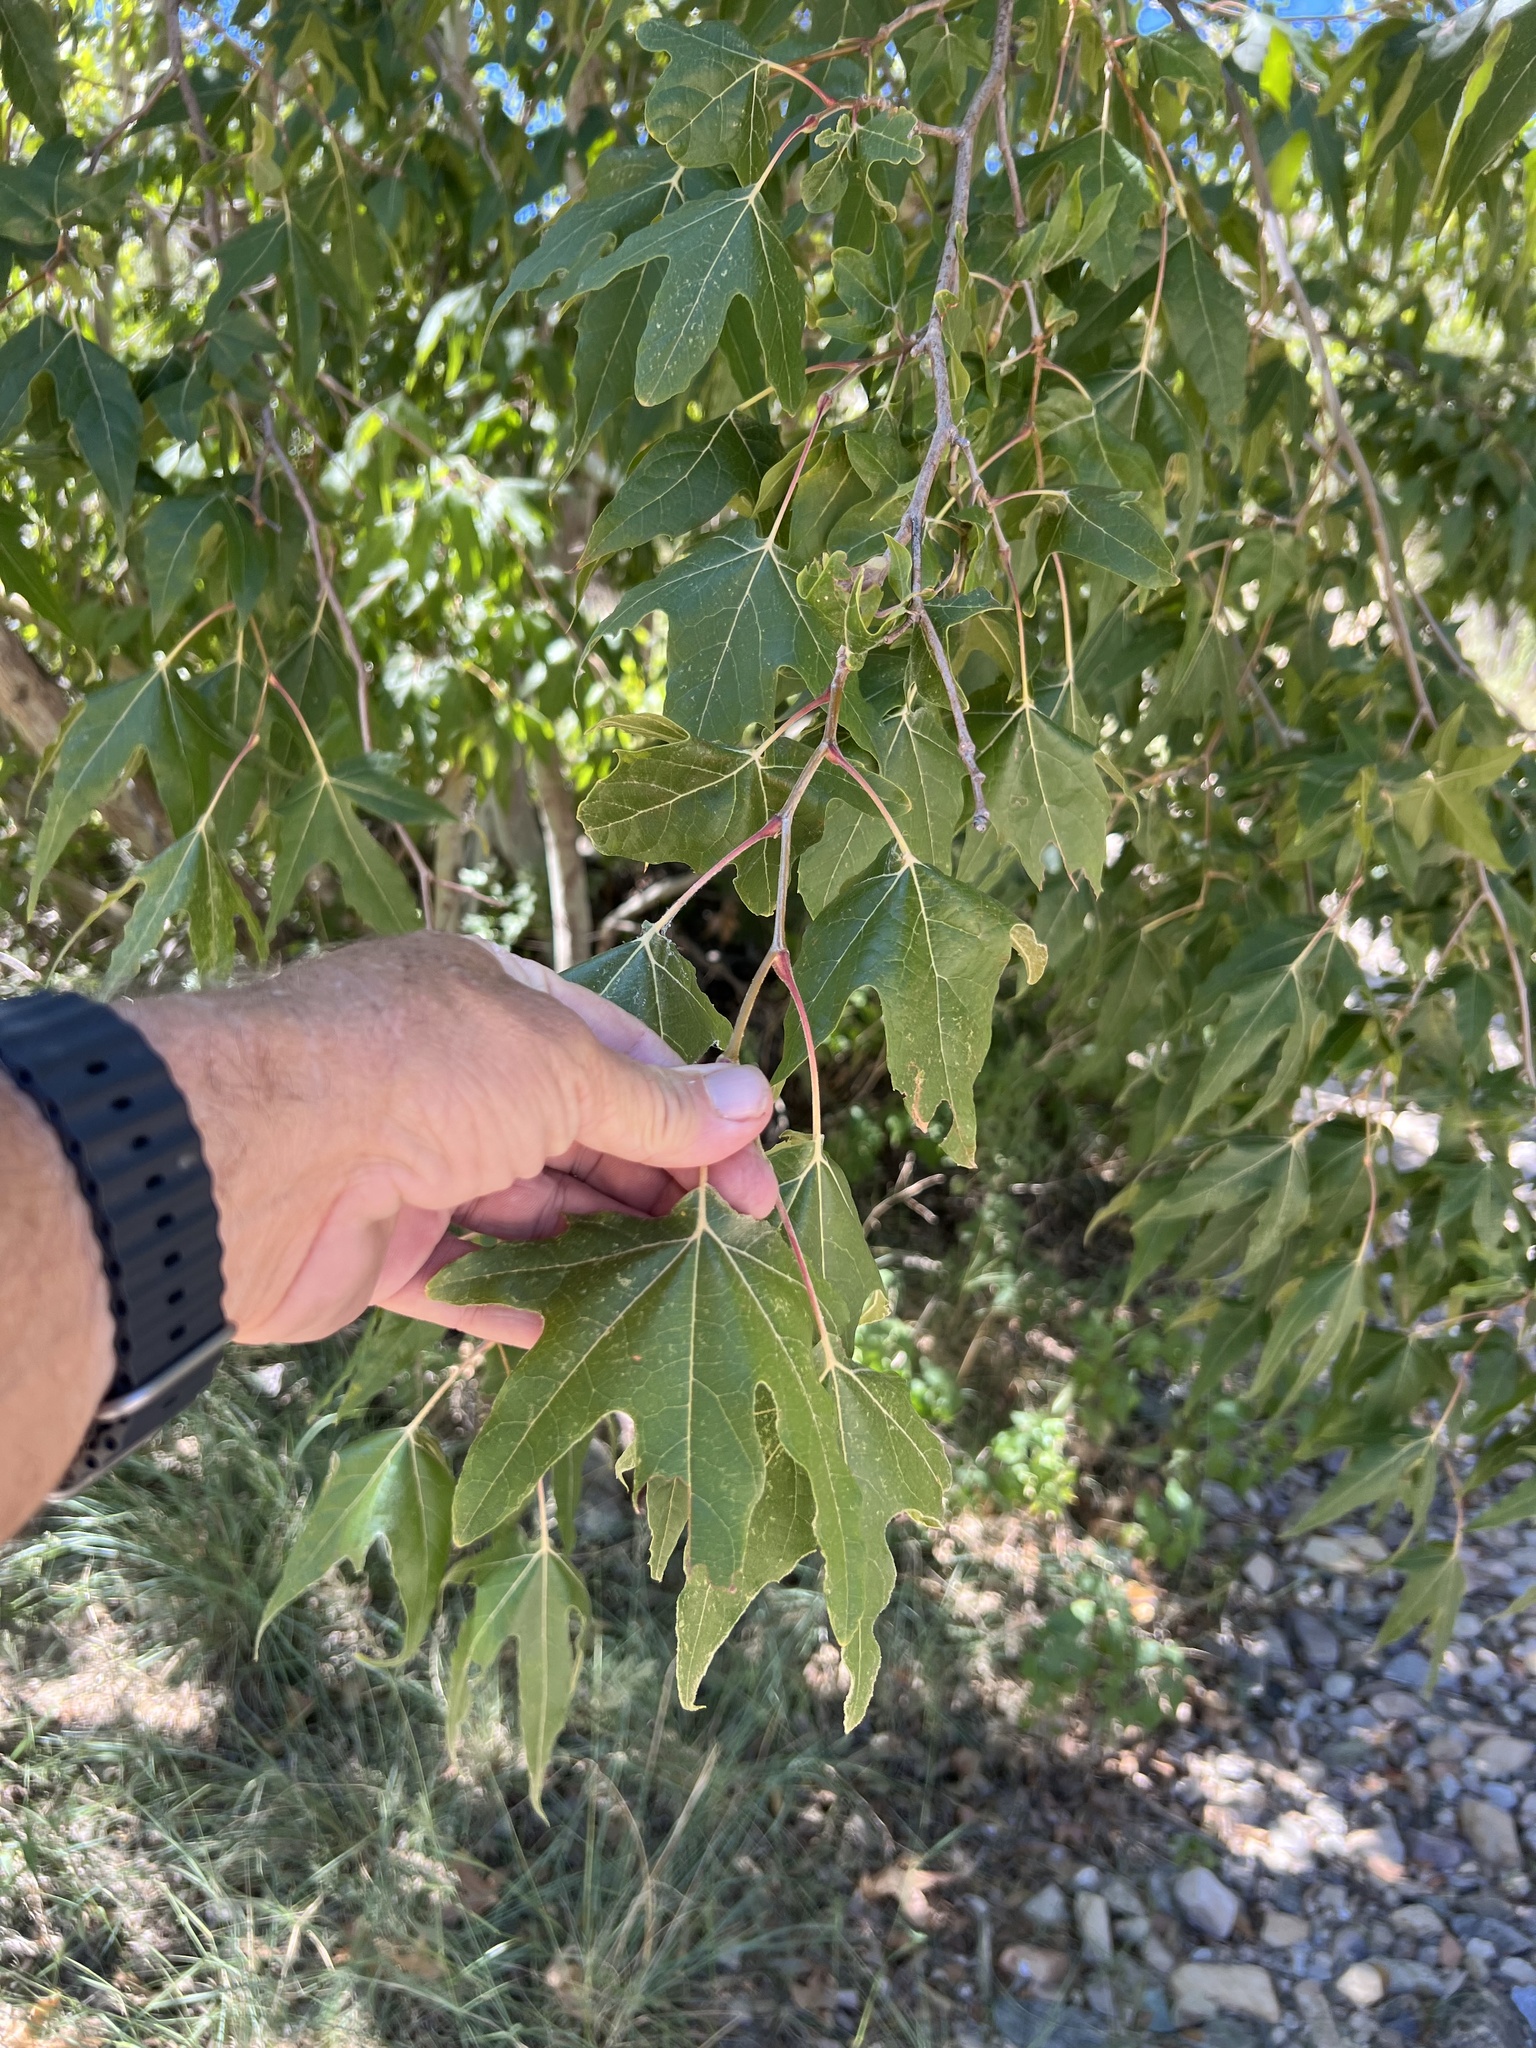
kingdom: Plantae
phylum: Tracheophyta
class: Magnoliopsida
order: Proteales
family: Platanaceae
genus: Platanus
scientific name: Platanus wrightii
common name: Arizona sycamore
